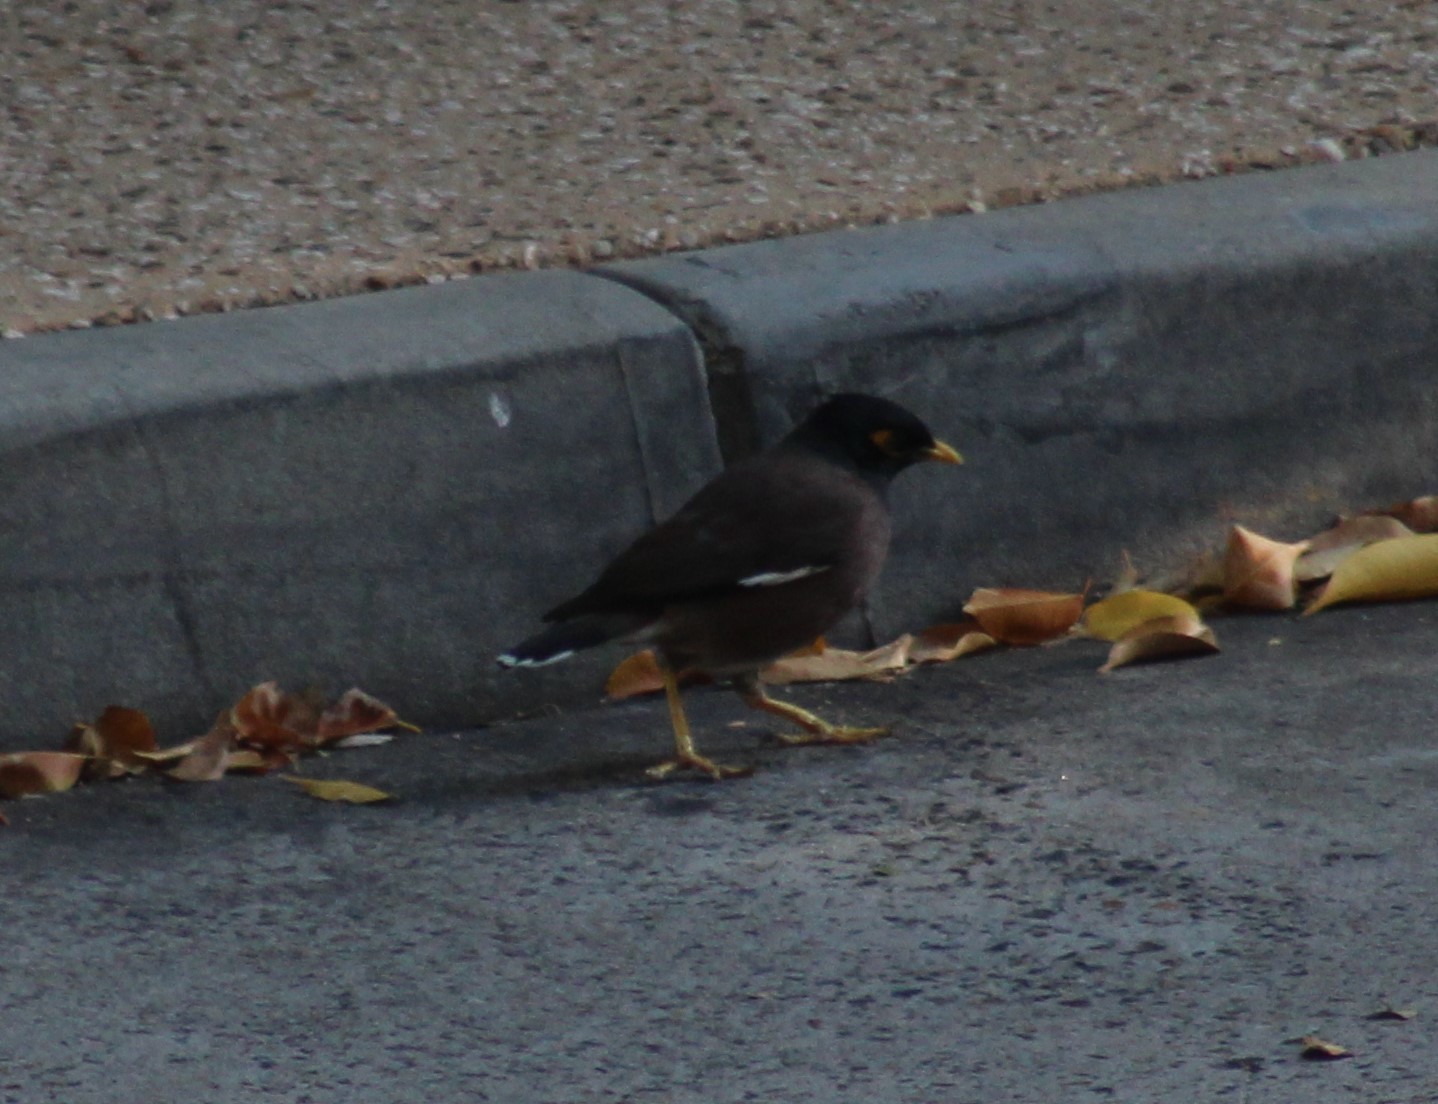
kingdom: Animalia
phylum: Chordata
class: Aves
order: Passeriformes
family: Sturnidae
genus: Acridotheres
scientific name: Acridotheres tristis
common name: Common myna
